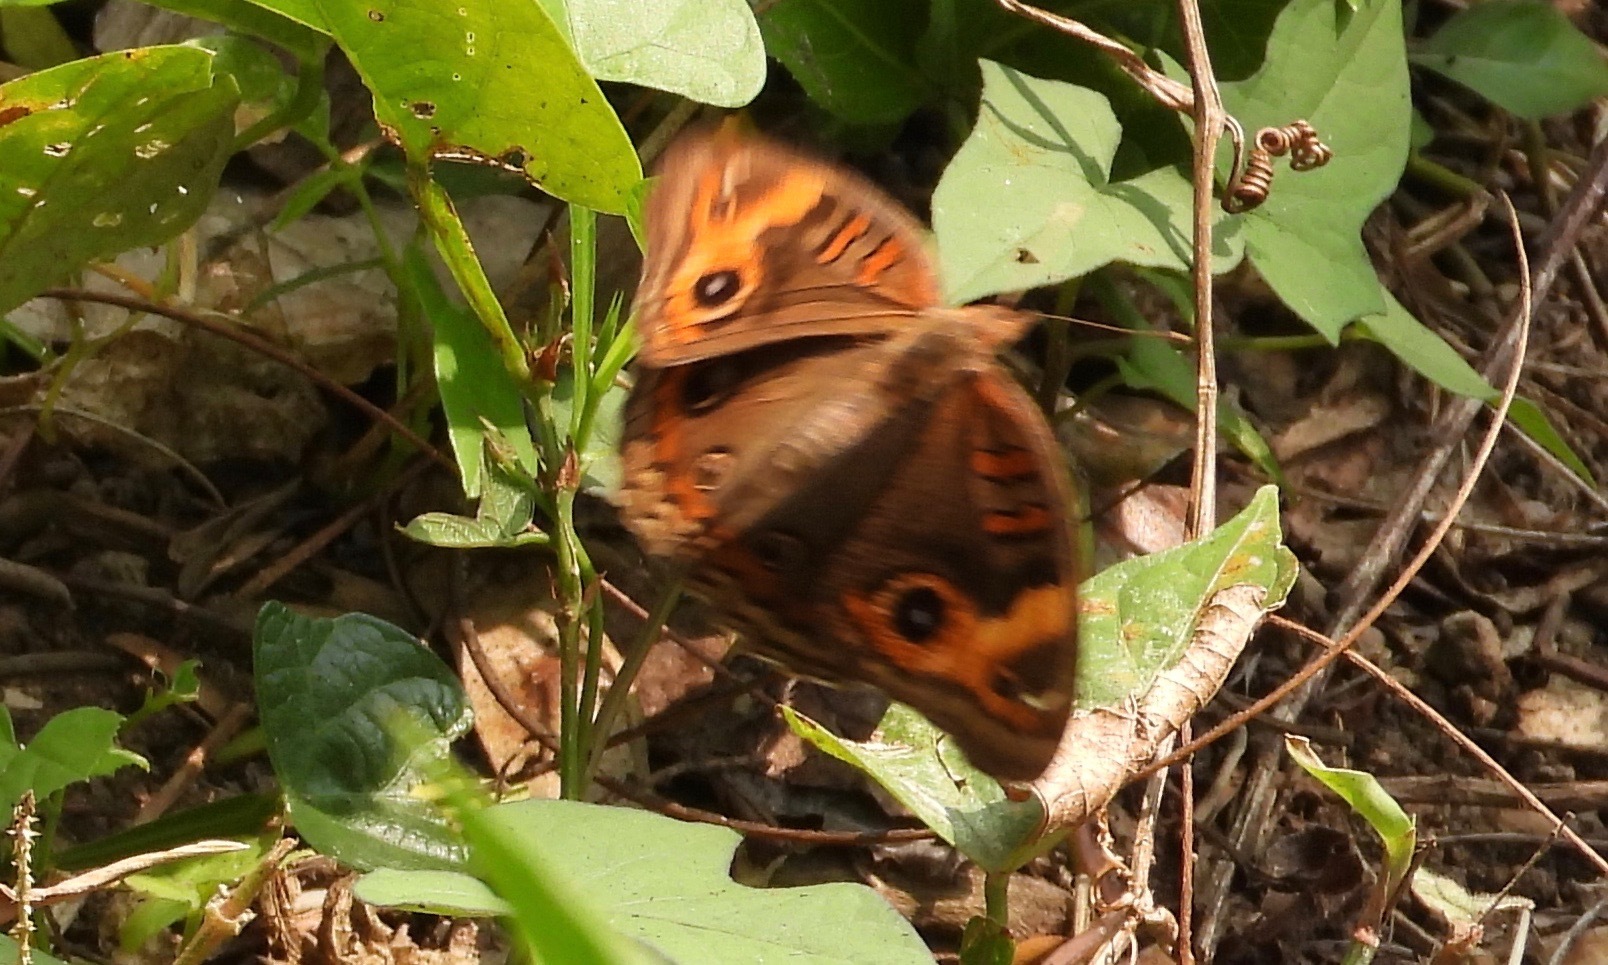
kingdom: Animalia
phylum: Arthropoda
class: Insecta
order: Lepidoptera
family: Nymphalidae
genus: Junonia
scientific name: Junonia lavinia
